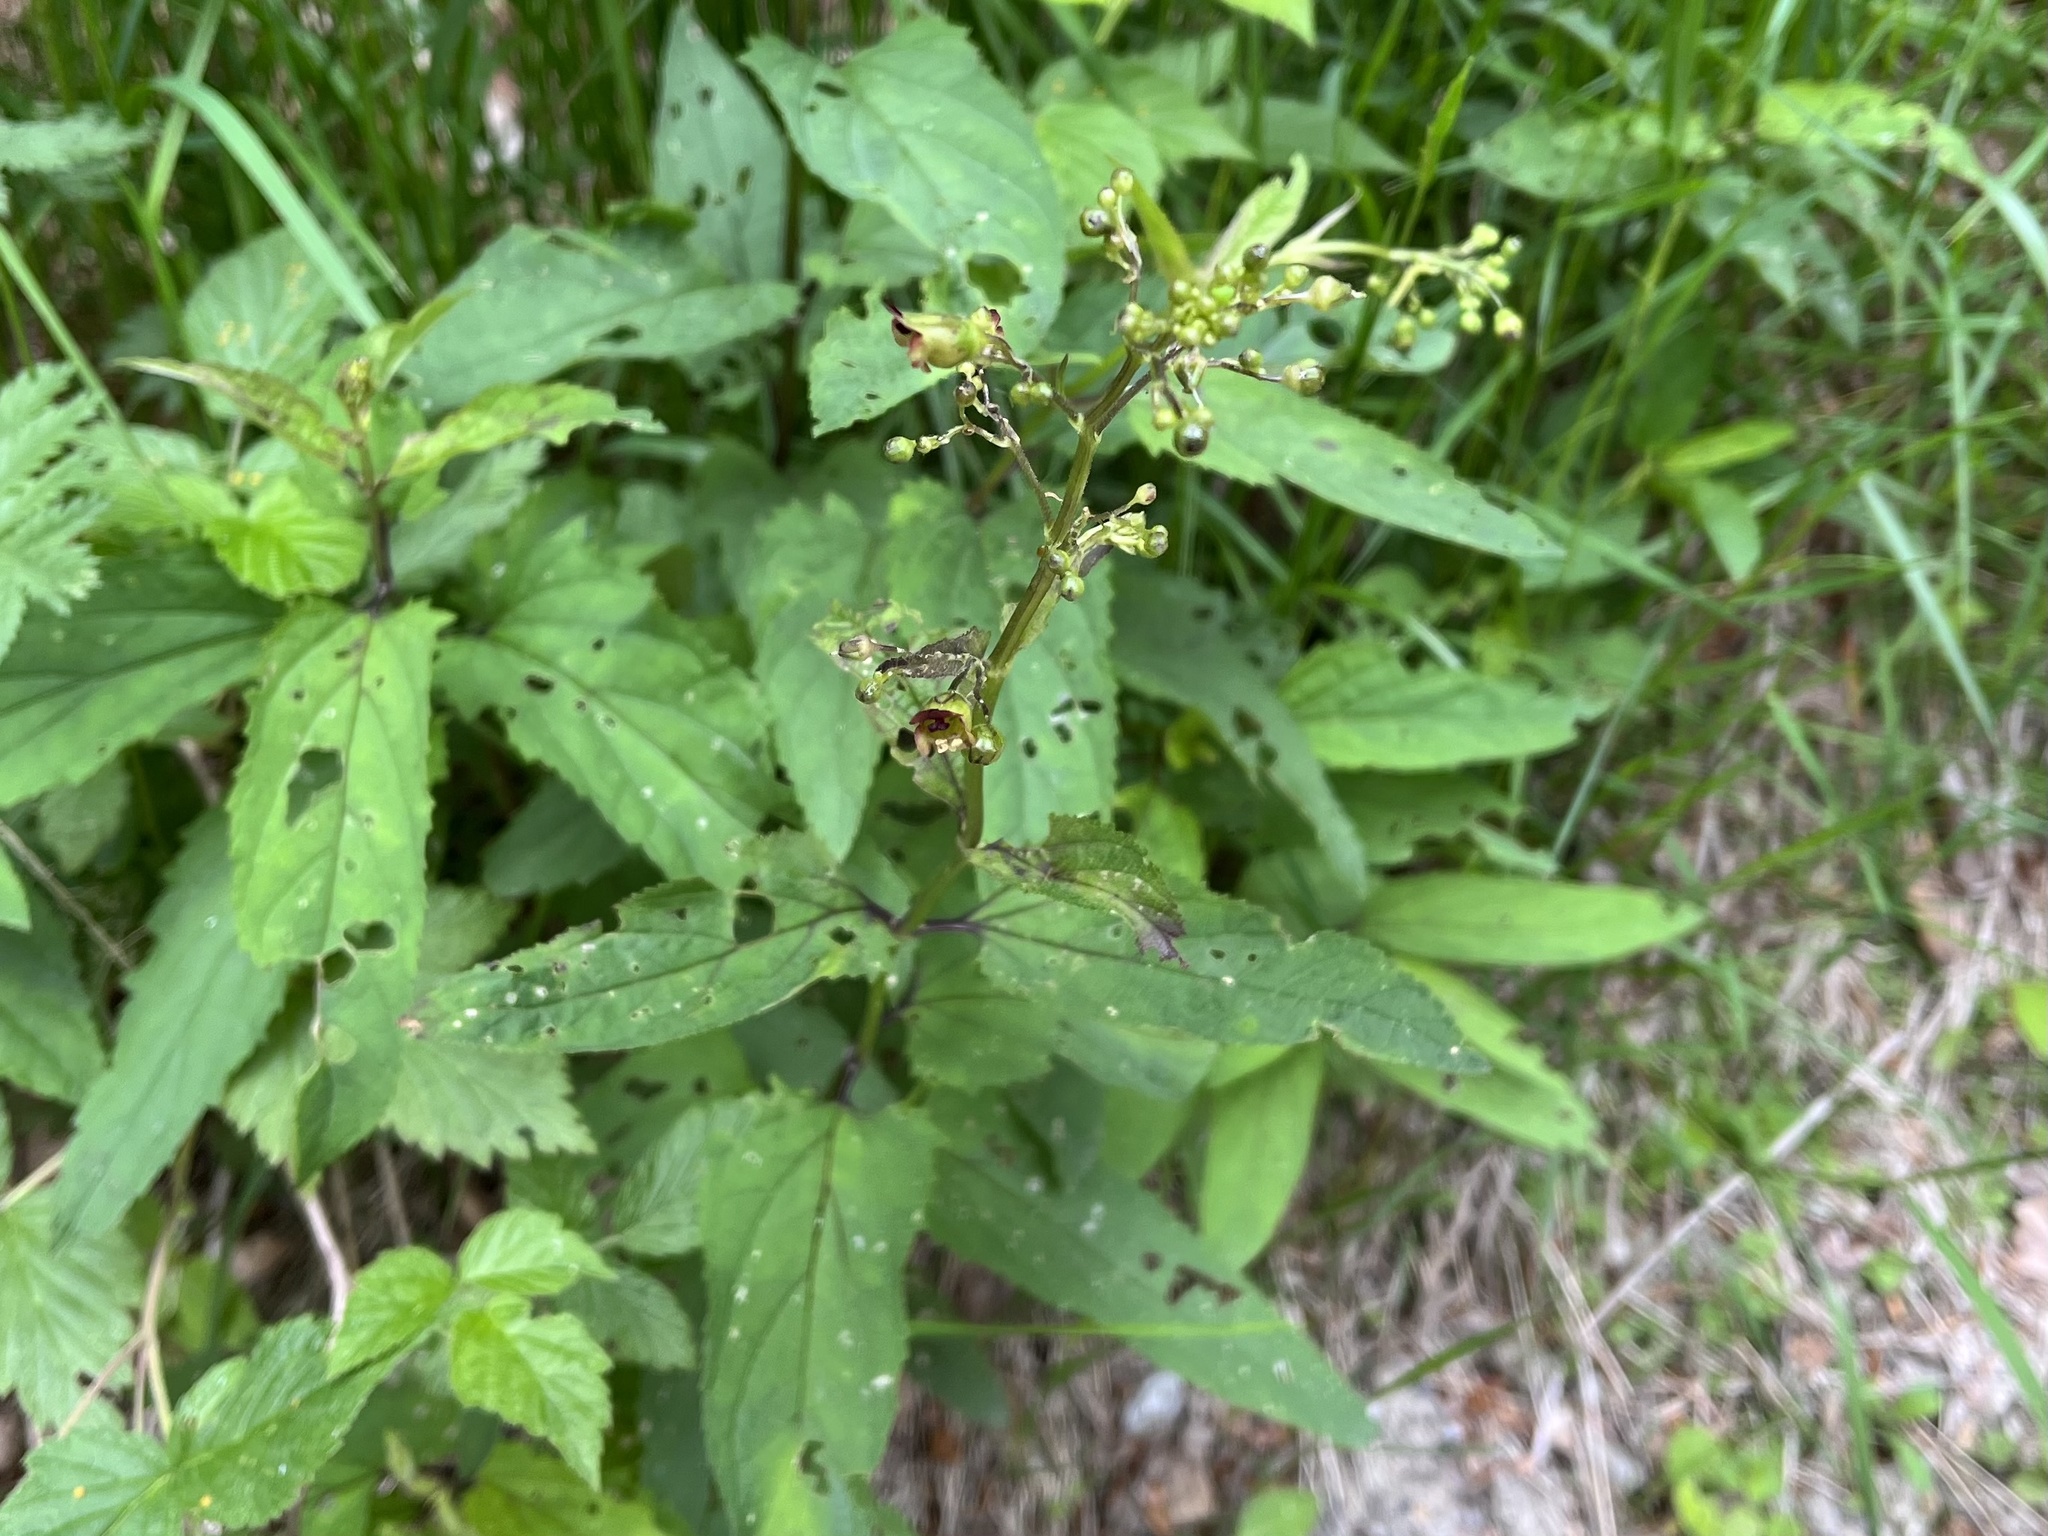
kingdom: Plantae
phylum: Tracheophyta
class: Magnoliopsida
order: Lamiales
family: Scrophulariaceae
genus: Scrophularia
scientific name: Scrophularia nodosa
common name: Common figwort
